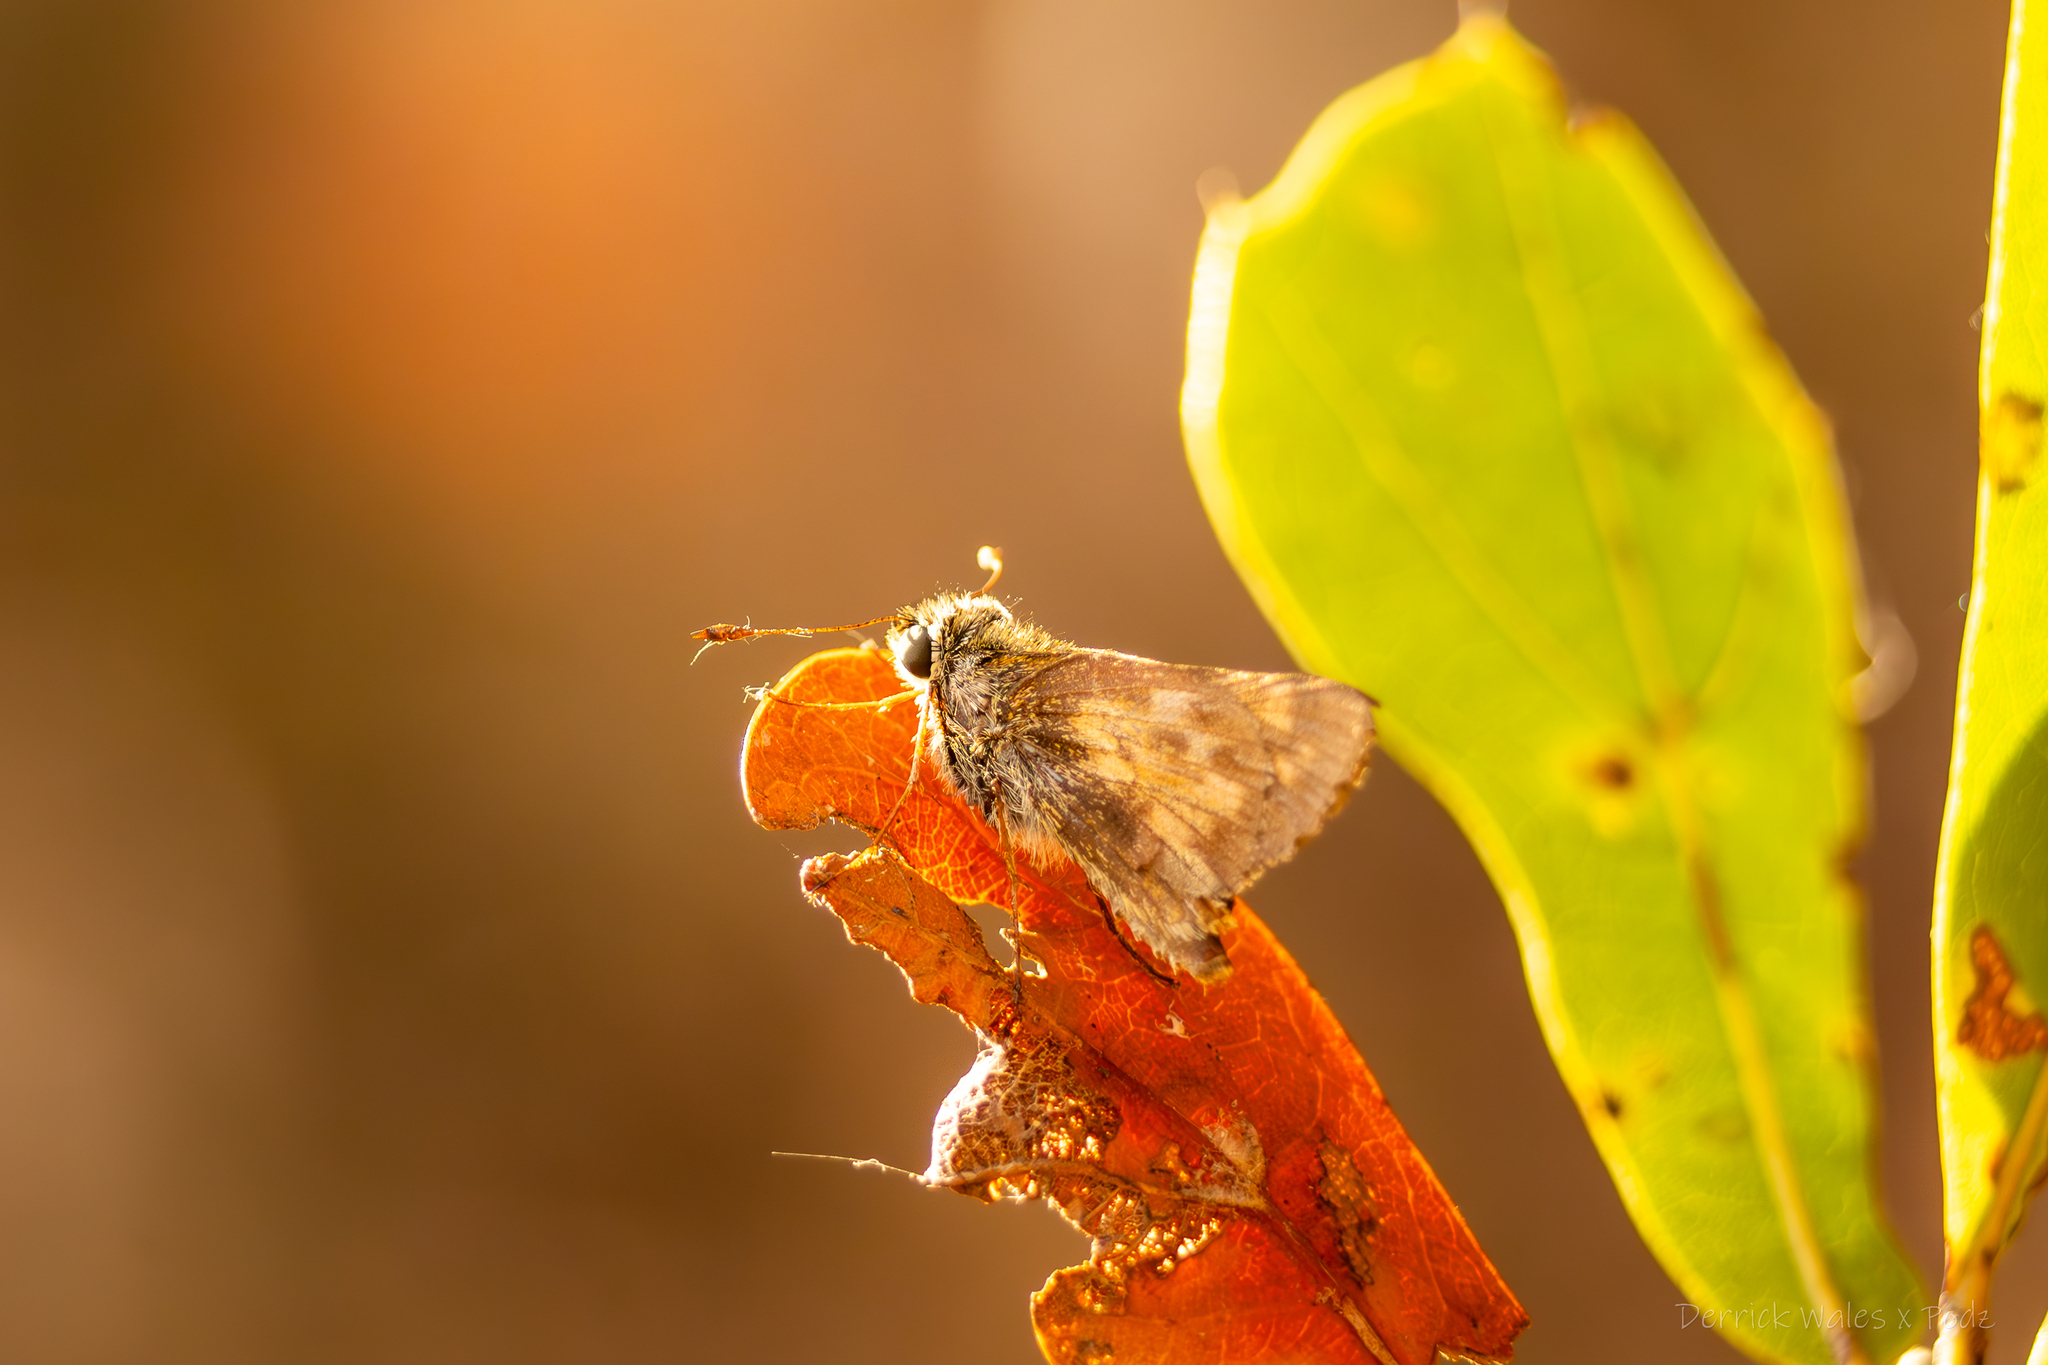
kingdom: Animalia
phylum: Arthropoda
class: Insecta
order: Lepidoptera
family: Hesperiidae
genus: Atalopedes
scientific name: Atalopedes
